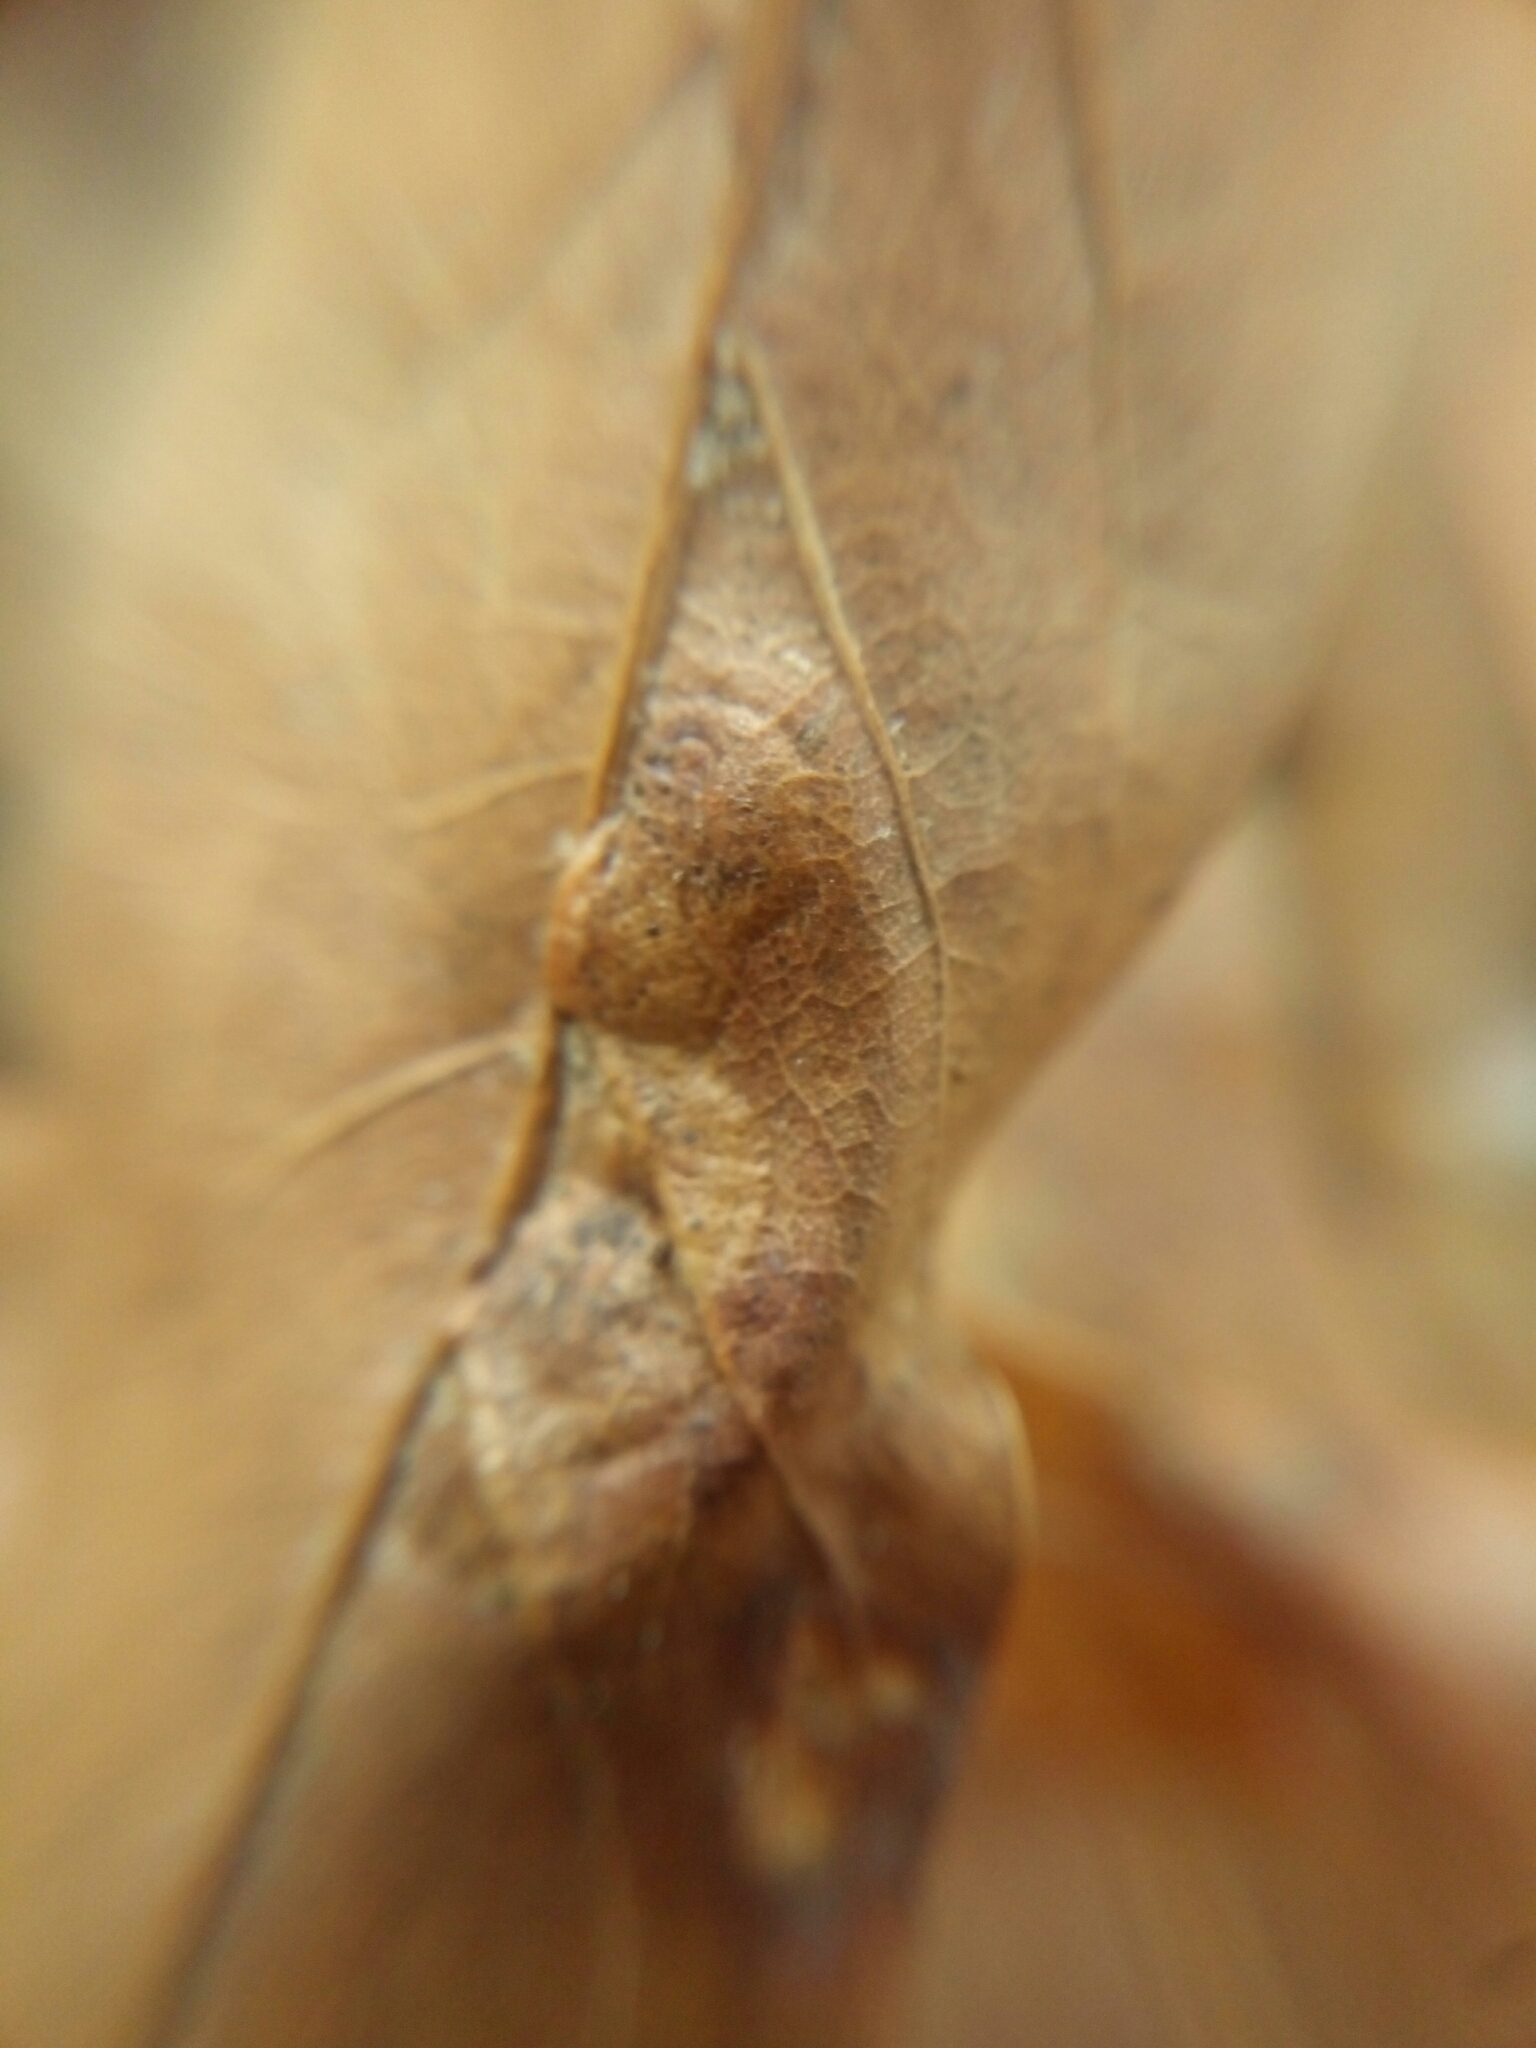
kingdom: Animalia
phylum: Arthropoda
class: Insecta
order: Diptera
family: Cecidomyiidae
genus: Polystepha
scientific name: Polystepha pilulae
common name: Oak leaf gall midge
